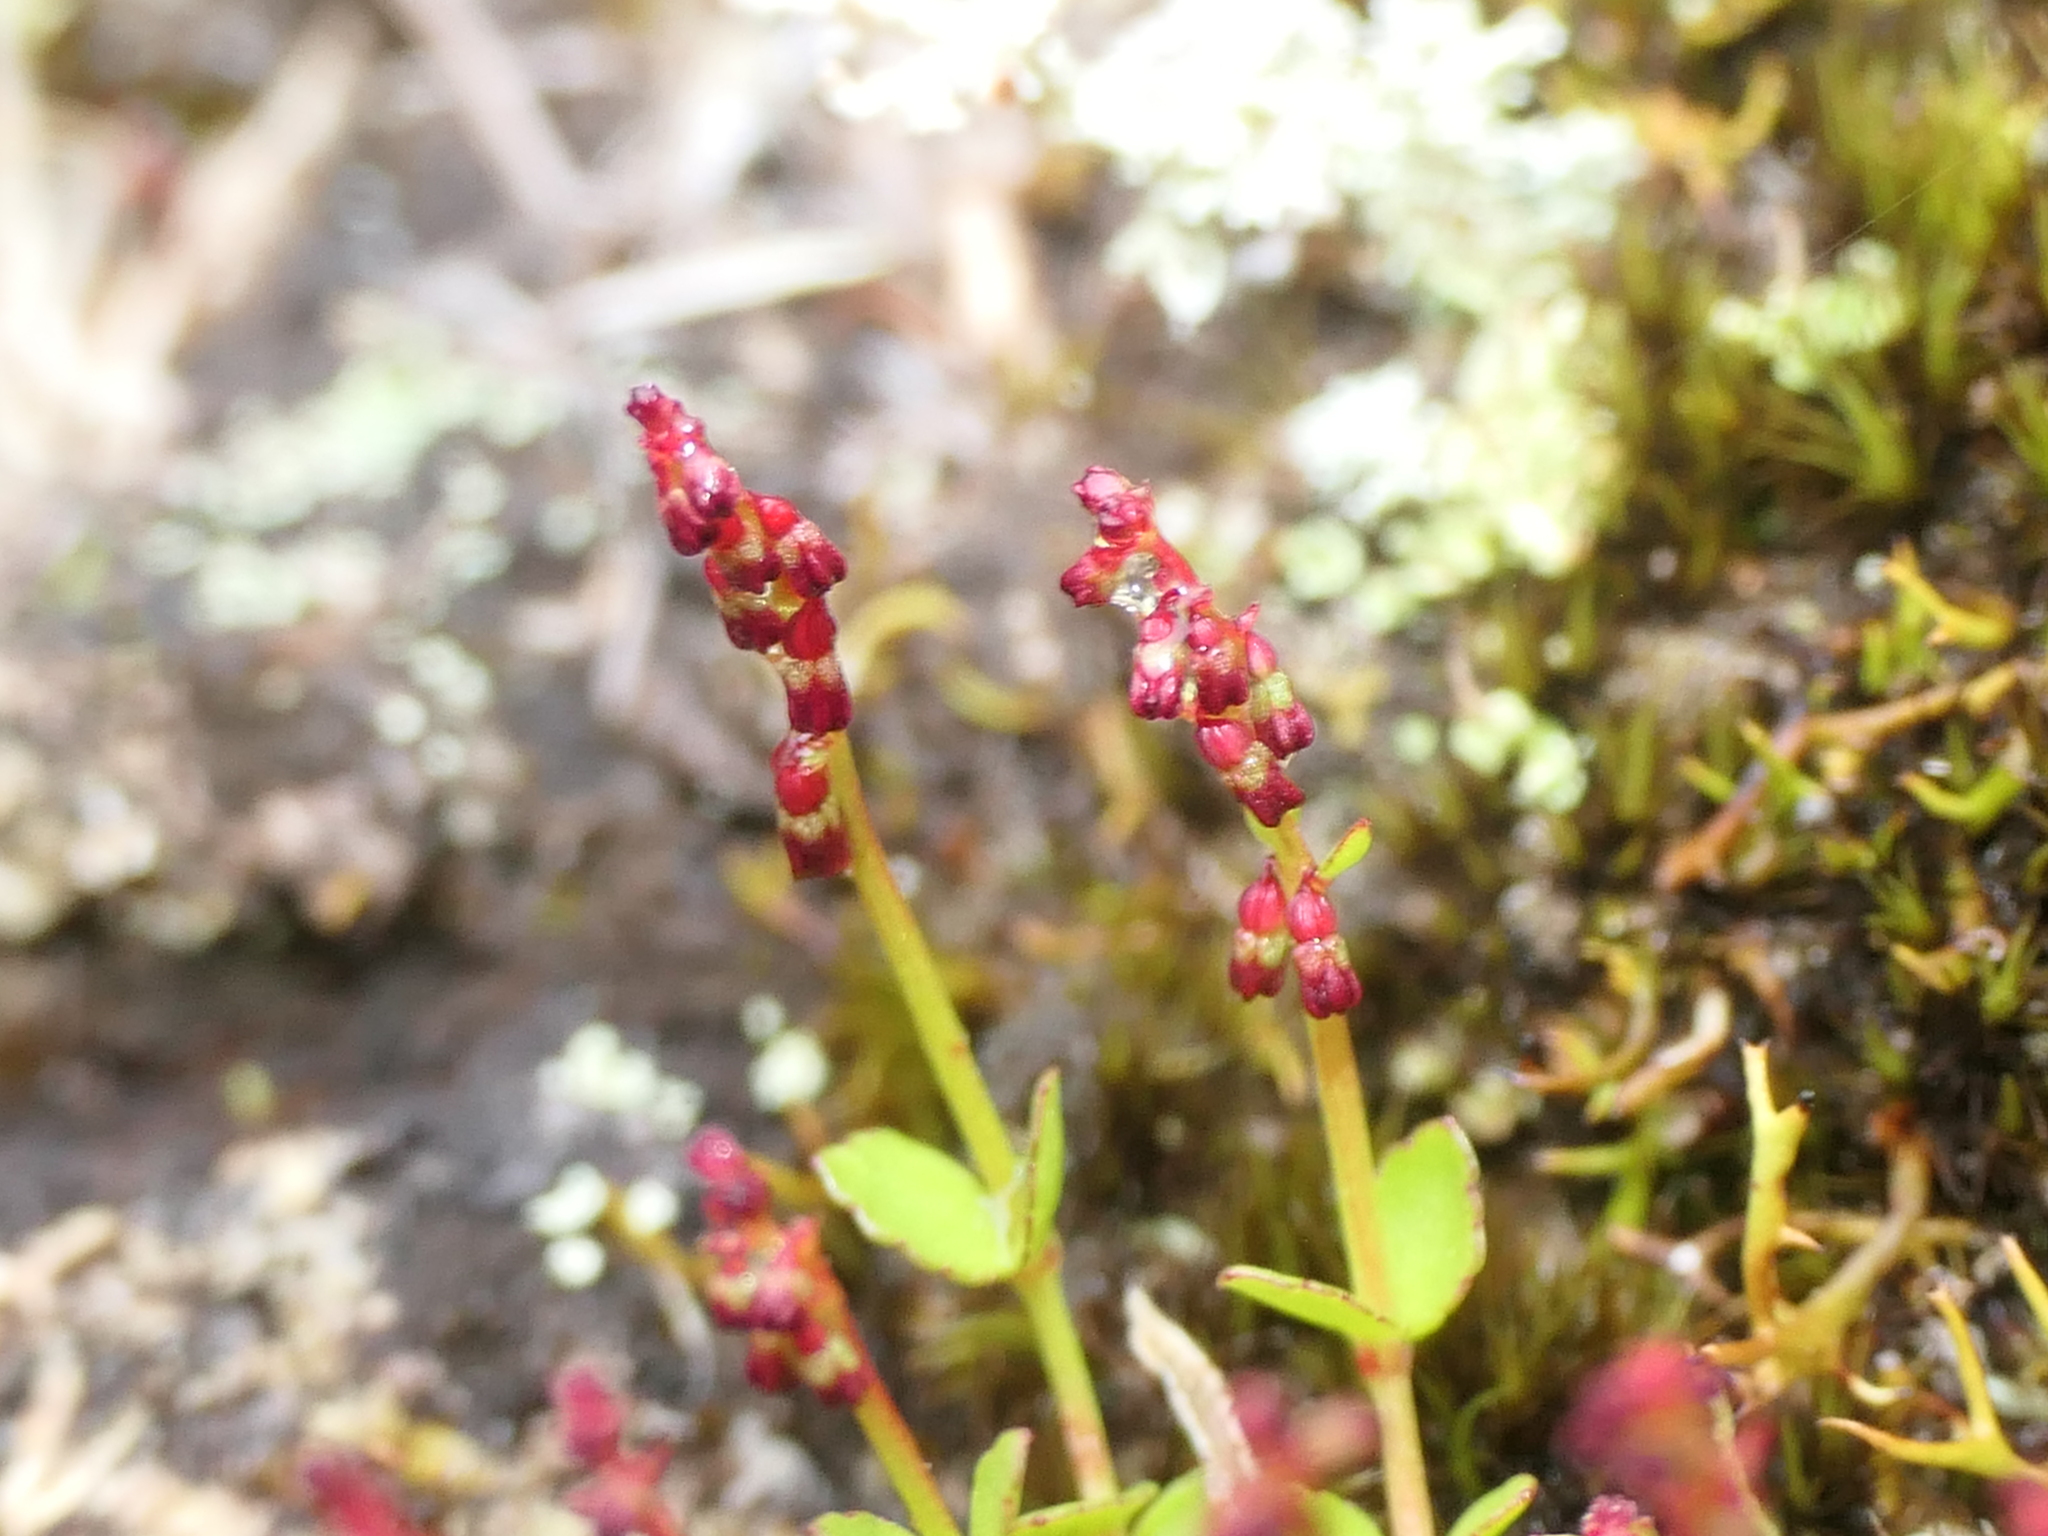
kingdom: Plantae
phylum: Tracheophyta
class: Magnoliopsida
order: Saxifragales
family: Haloragaceae
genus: Gonocarpus
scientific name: Gonocarpus micranthus
